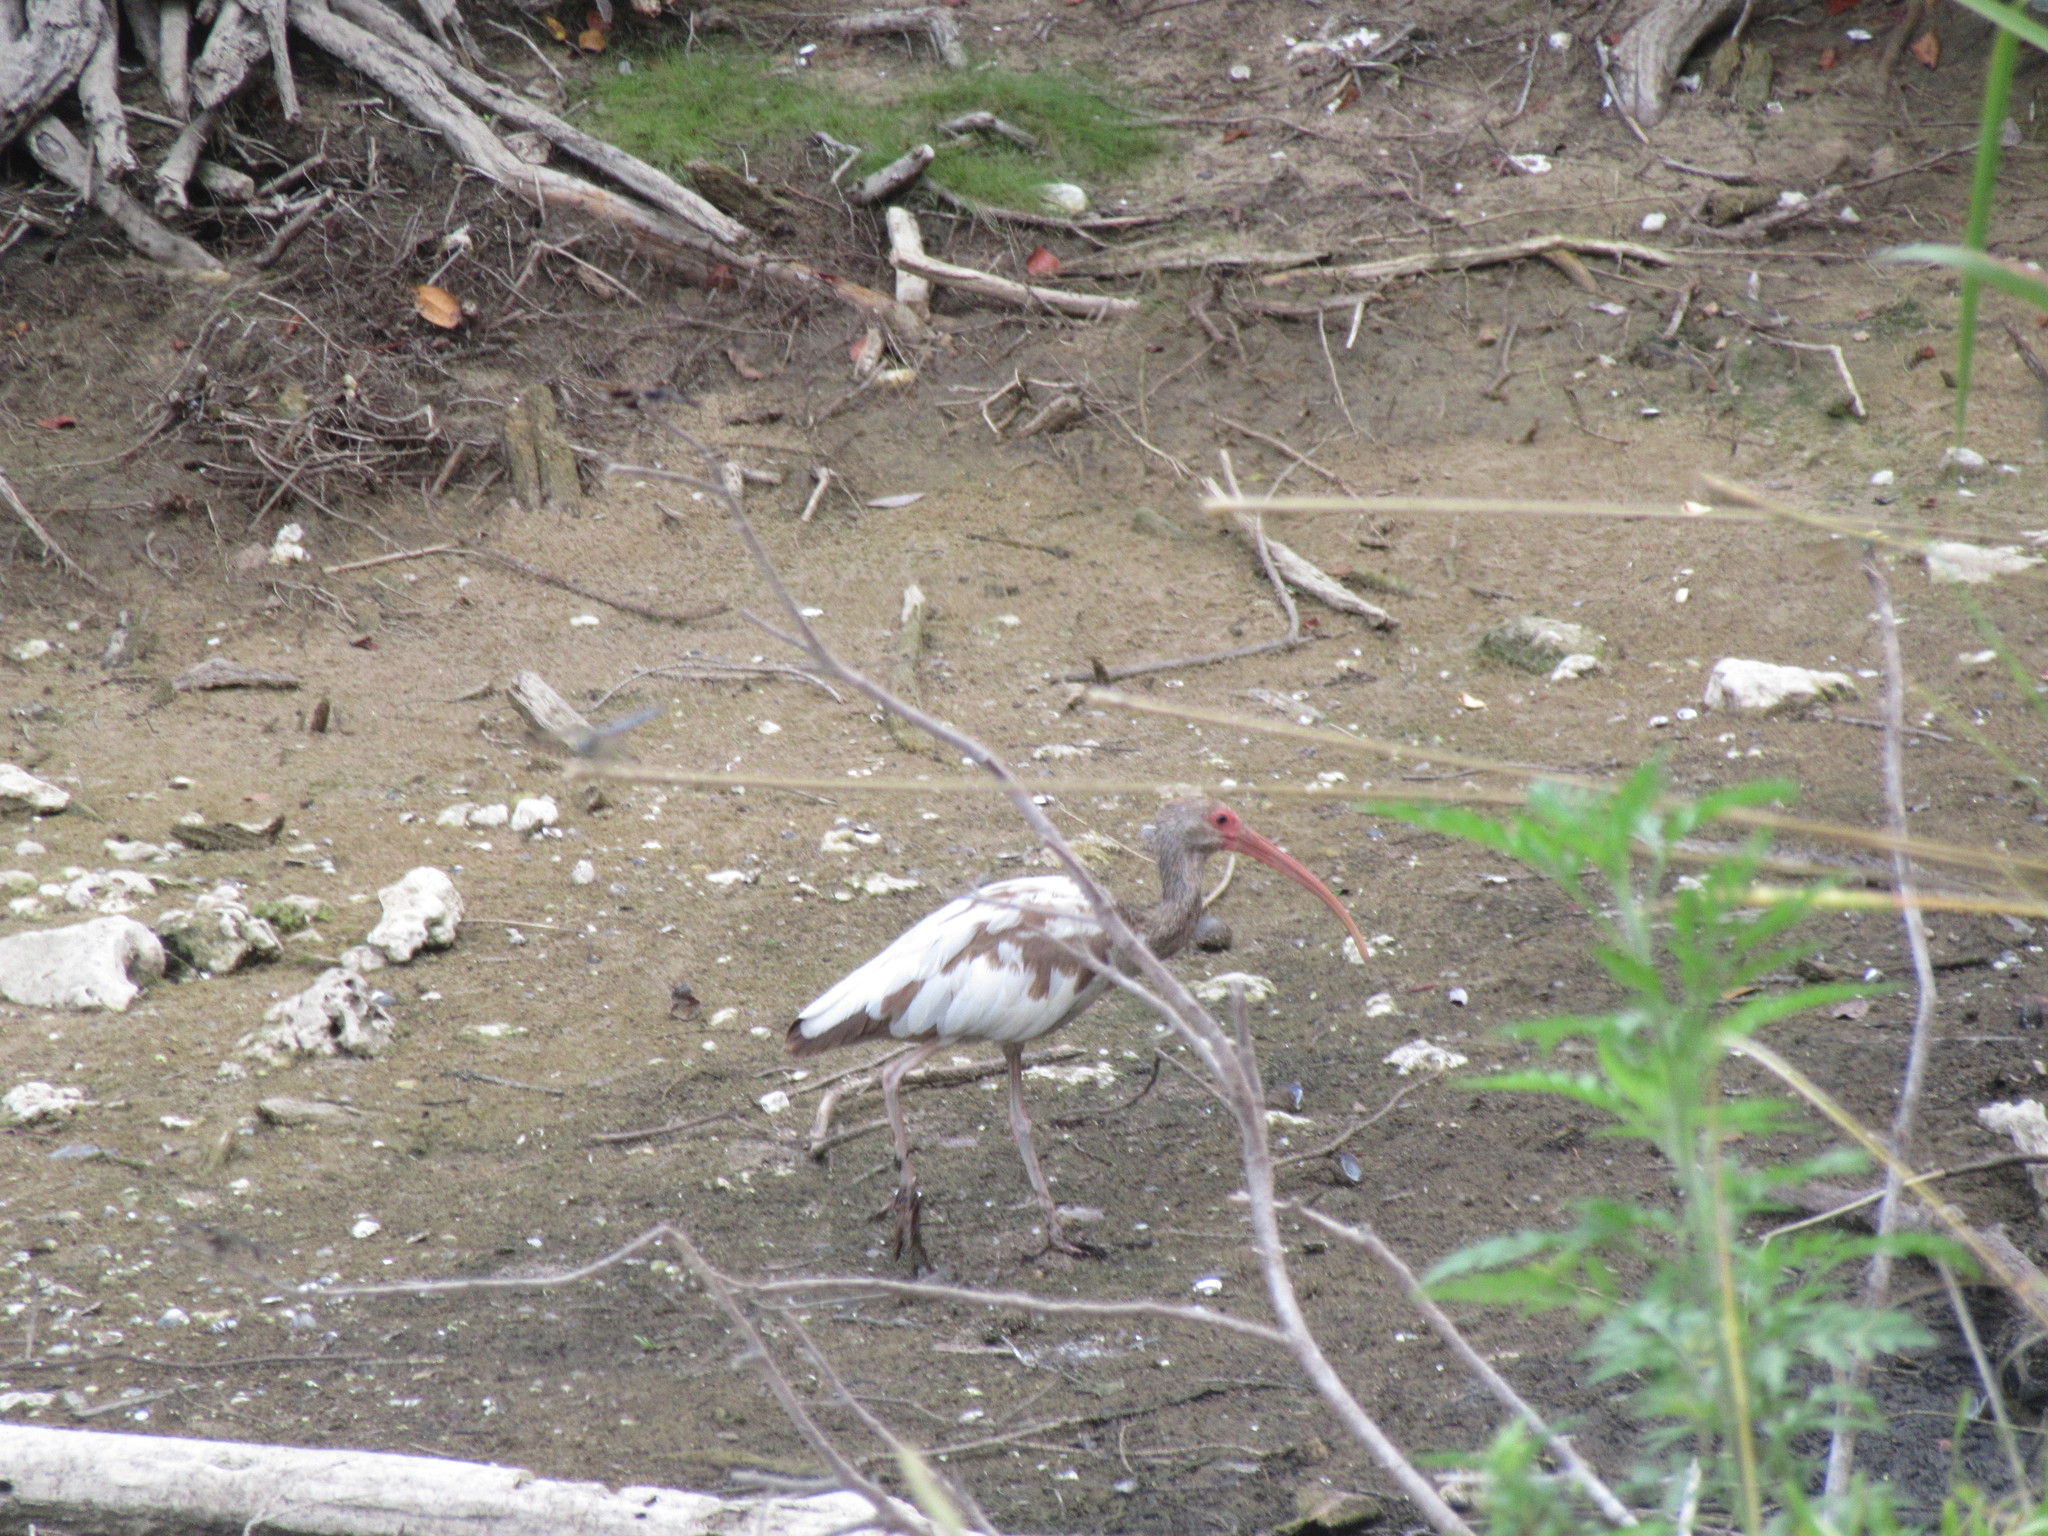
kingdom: Animalia
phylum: Chordata
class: Aves
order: Pelecaniformes
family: Threskiornithidae
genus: Eudocimus
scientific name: Eudocimus albus
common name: White ibis
